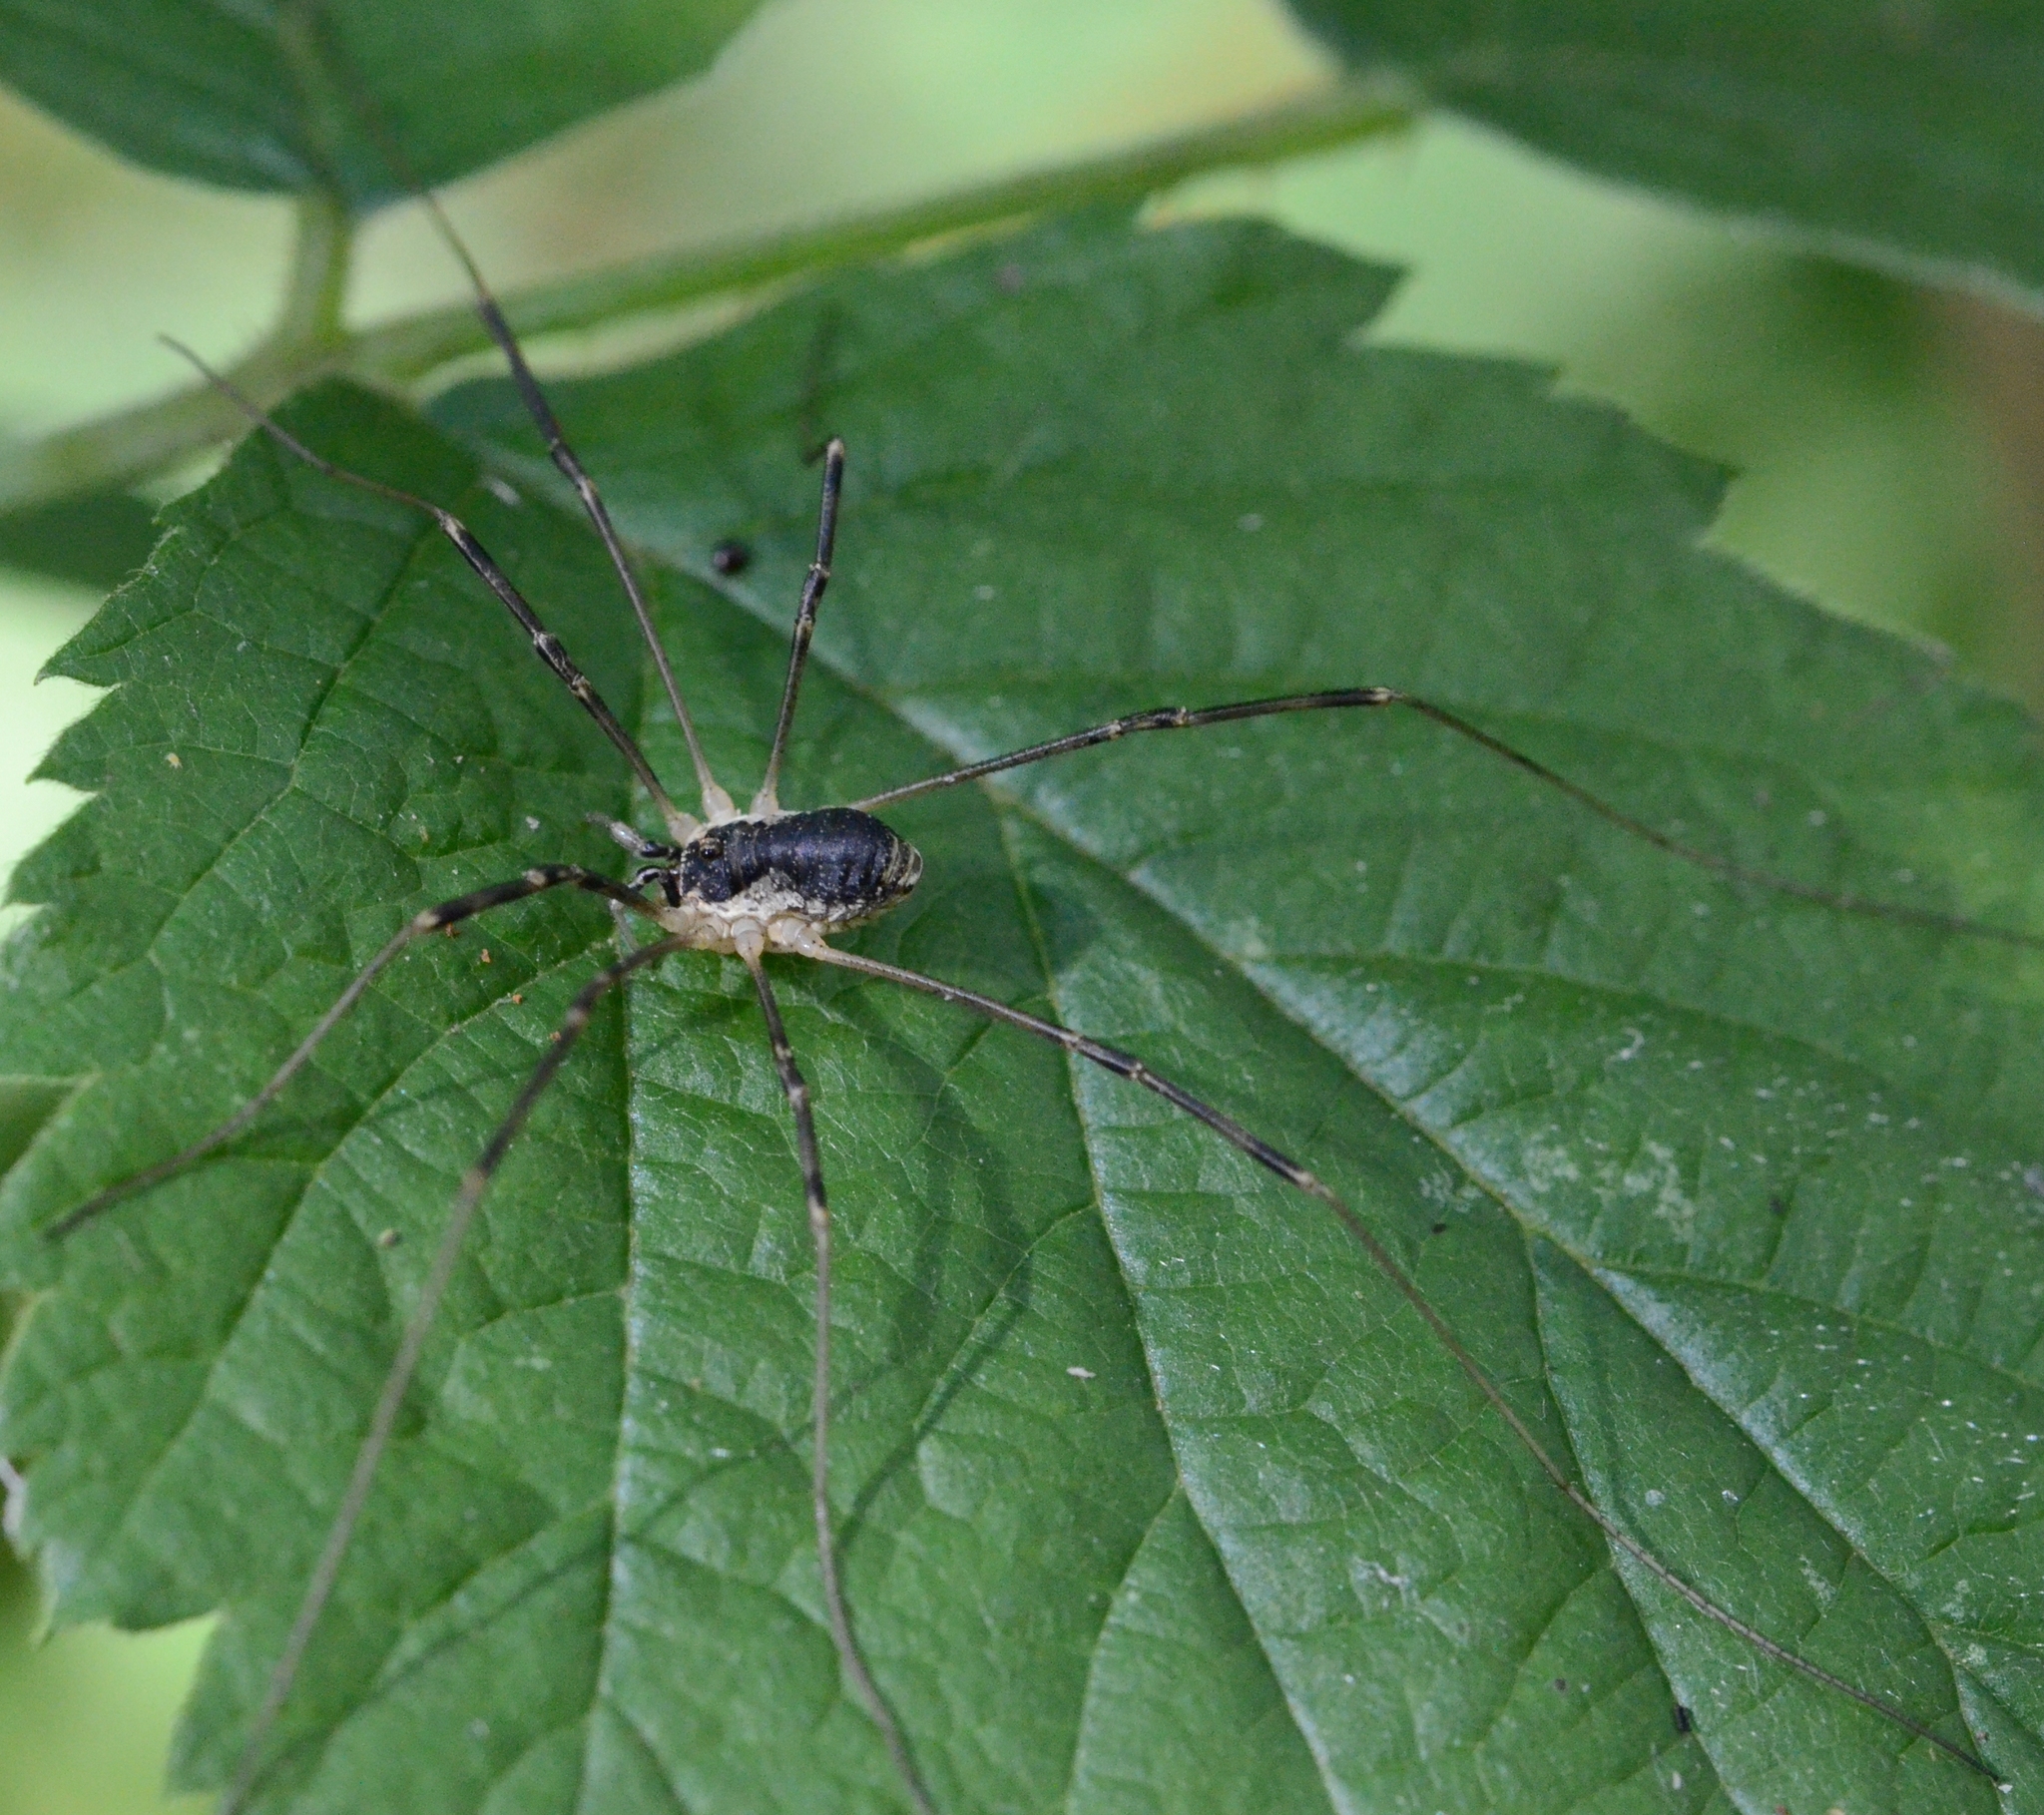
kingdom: Animalia
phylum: Arthropoda
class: Arachnida
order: Opiliones
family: Phalangiidae
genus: Mitopus
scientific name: Mitopus morio
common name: Saddleback harvestman
